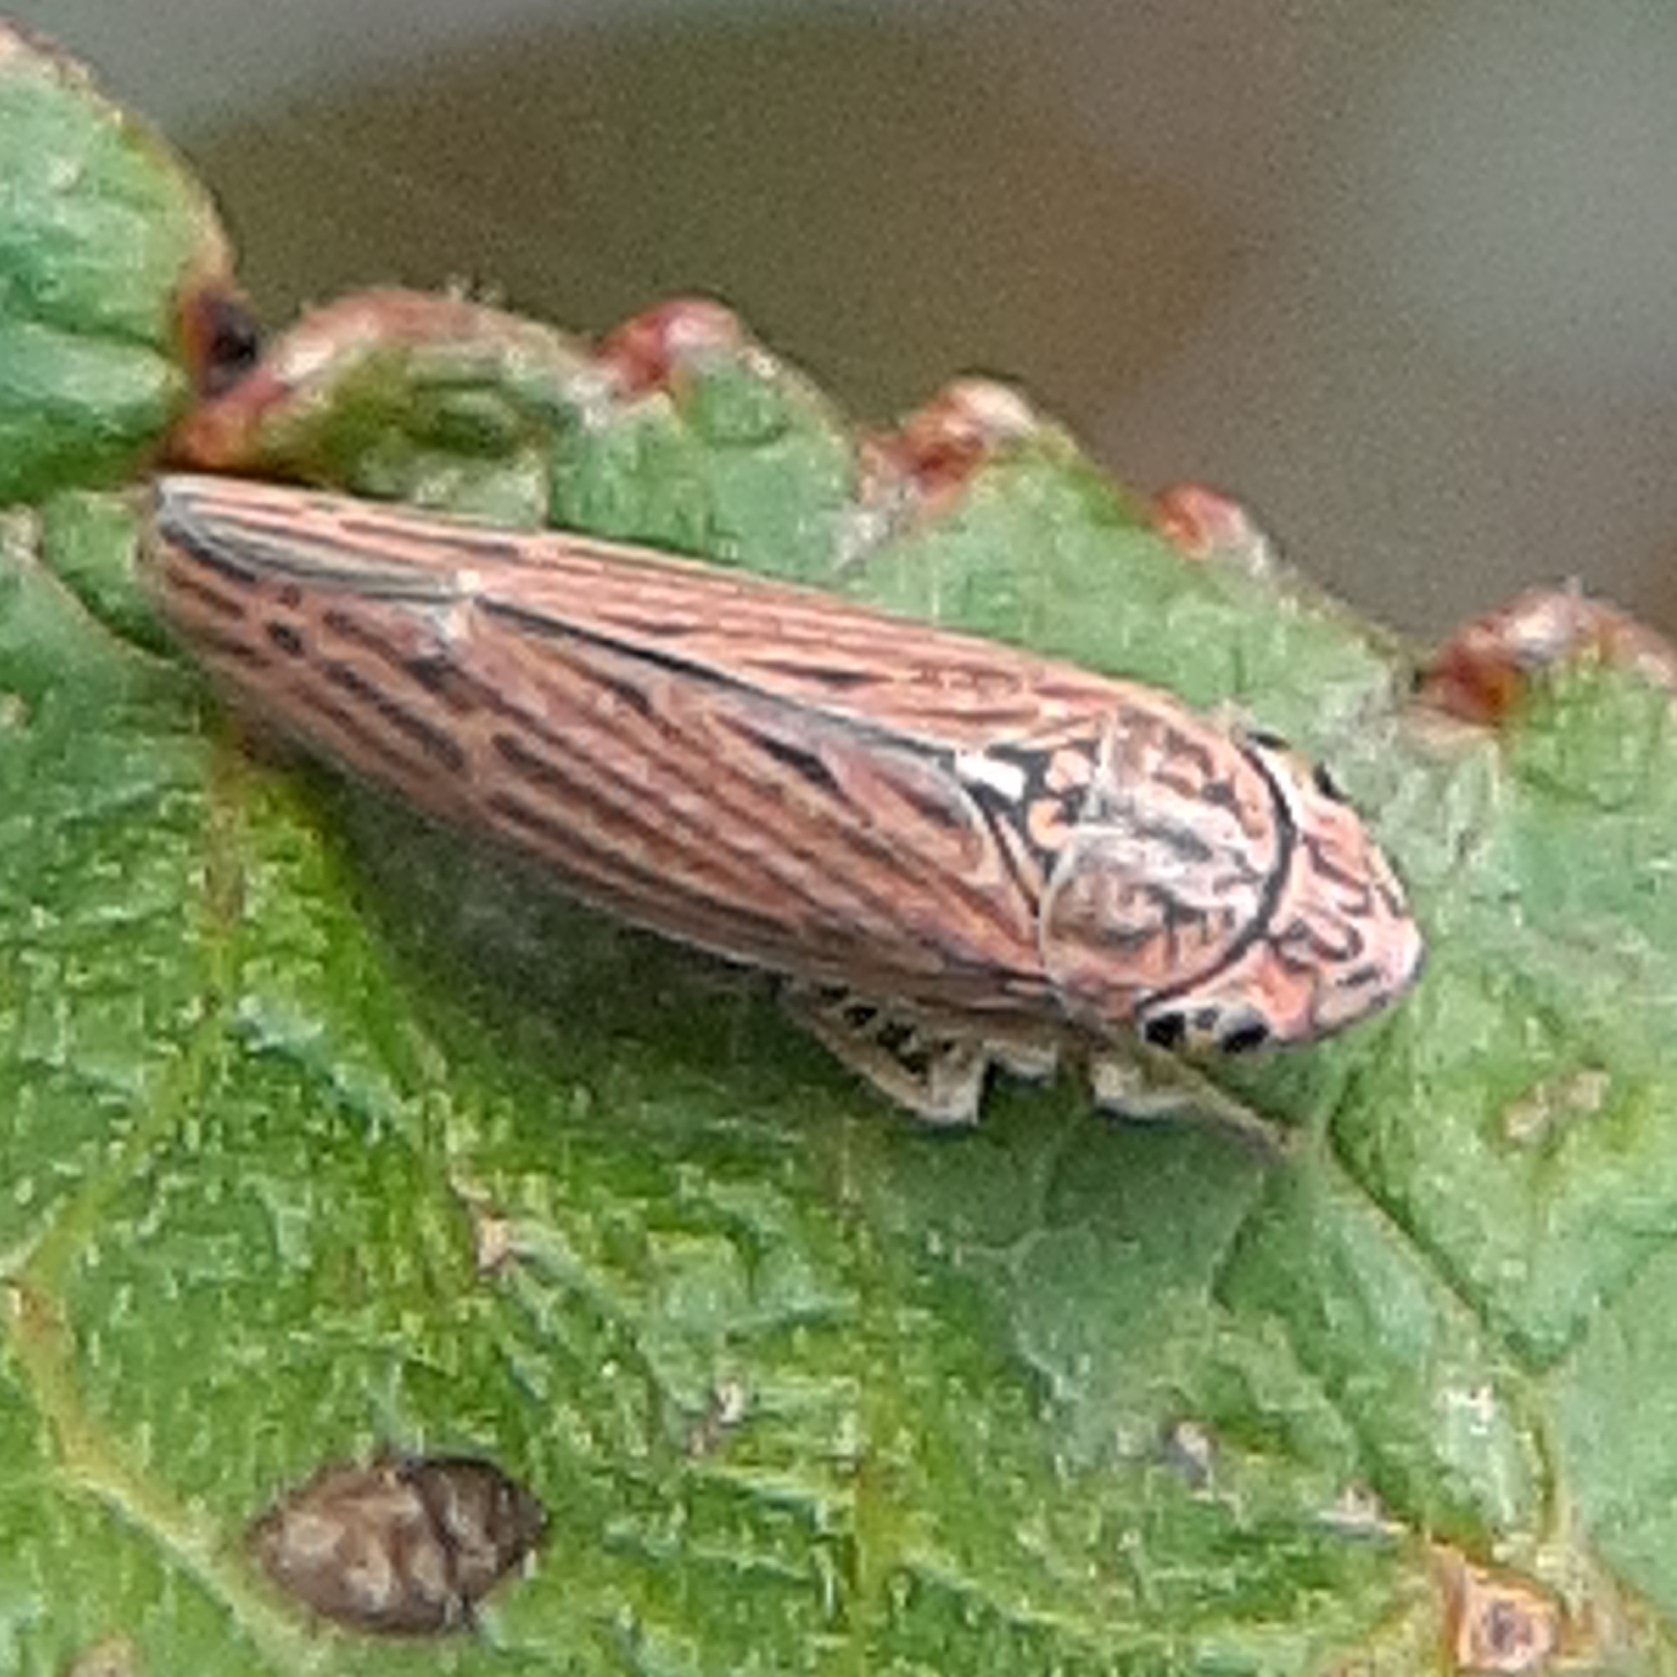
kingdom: Animalia
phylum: Arthropoda
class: Insecta
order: Hemiptera
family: Cicadellidae
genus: Neokolla
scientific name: Neokolla hieroglyphica
